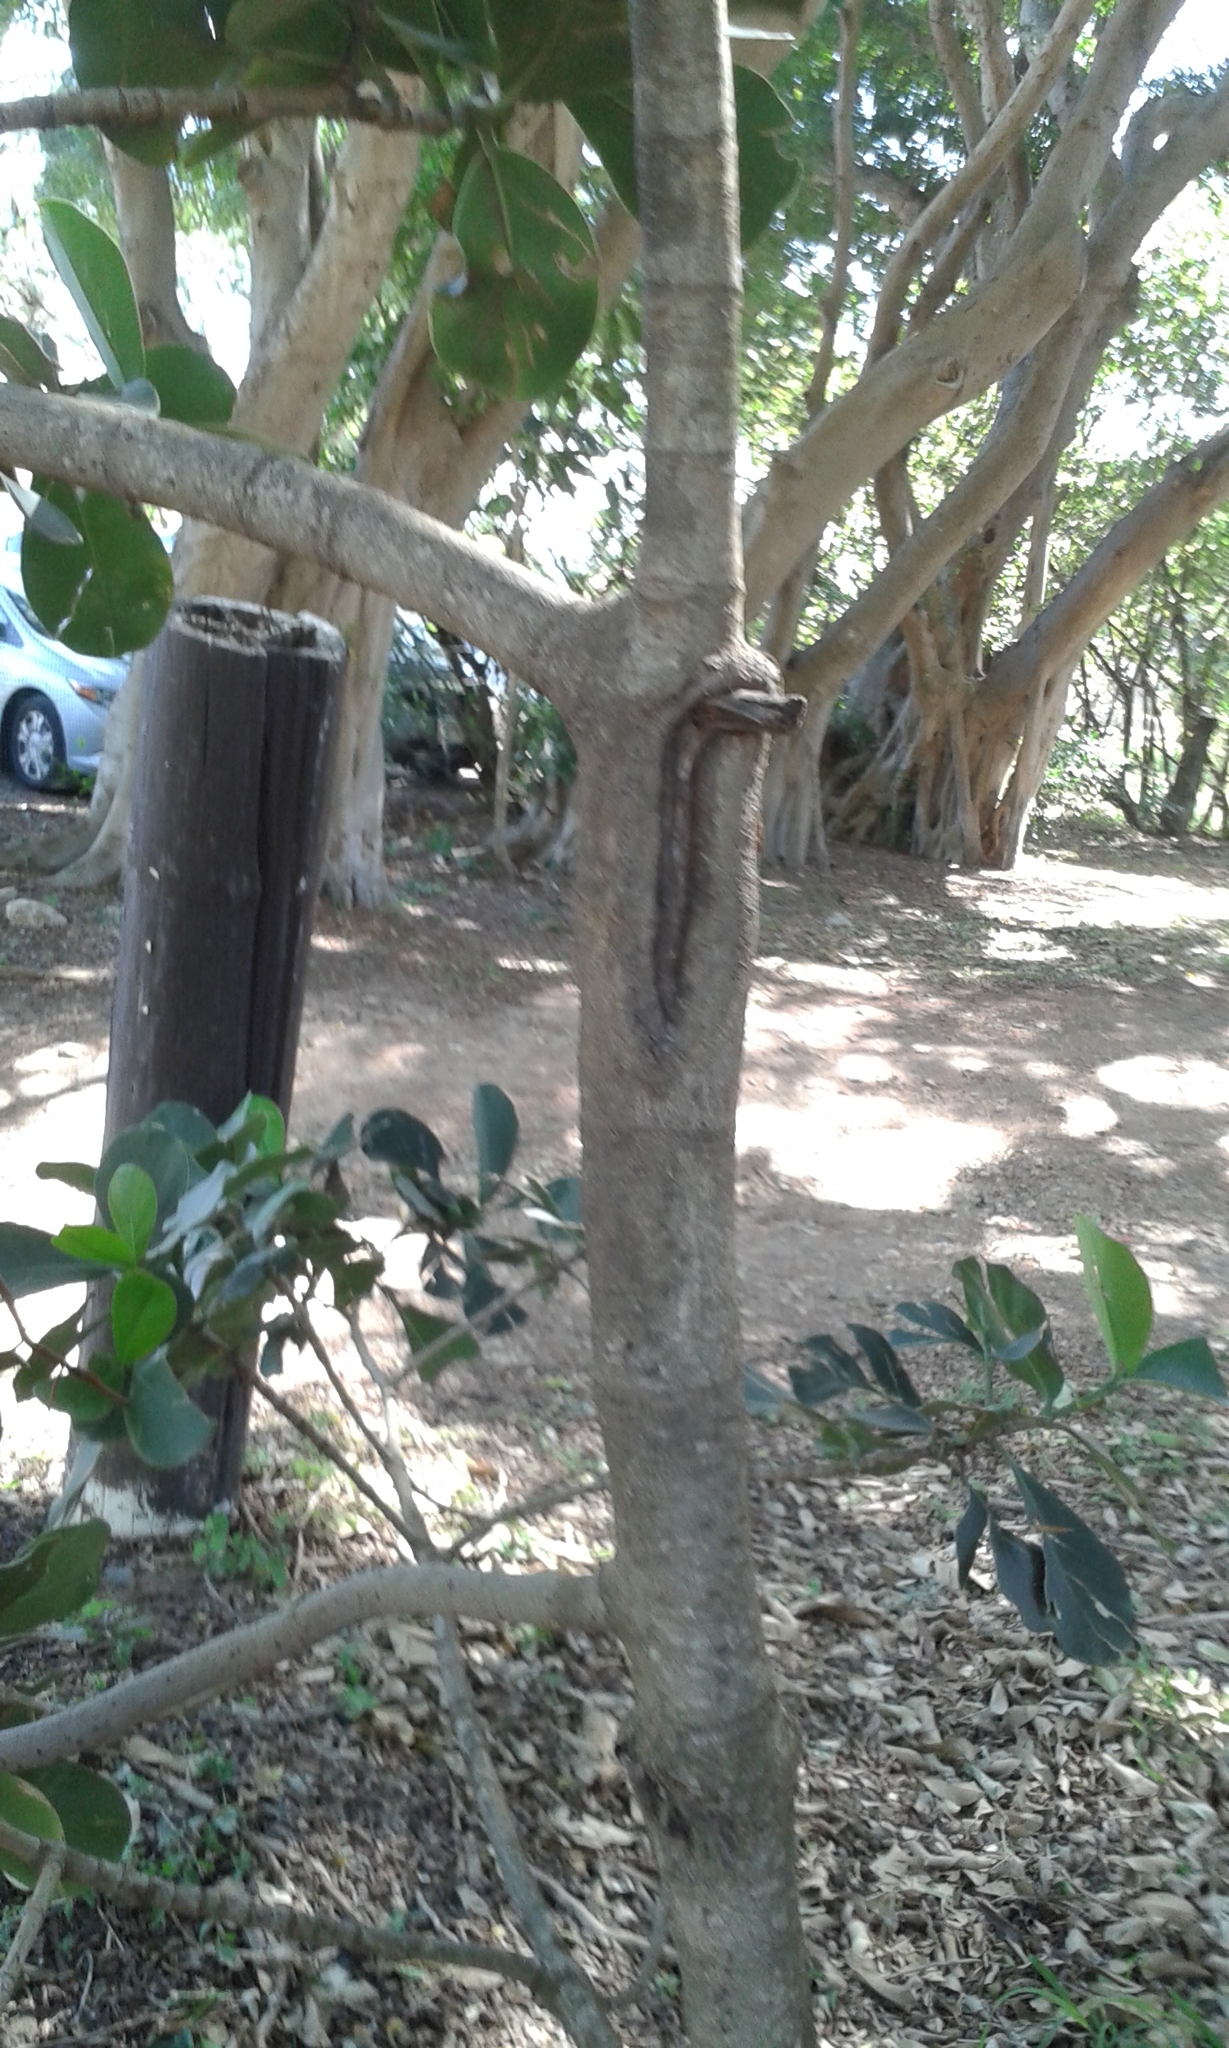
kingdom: Plantae
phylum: Tracheophyta
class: Magnoliopsida
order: Malpighiales
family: Clusiaceae
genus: Clusia
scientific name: Clusia rosea
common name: Scotch attorney
